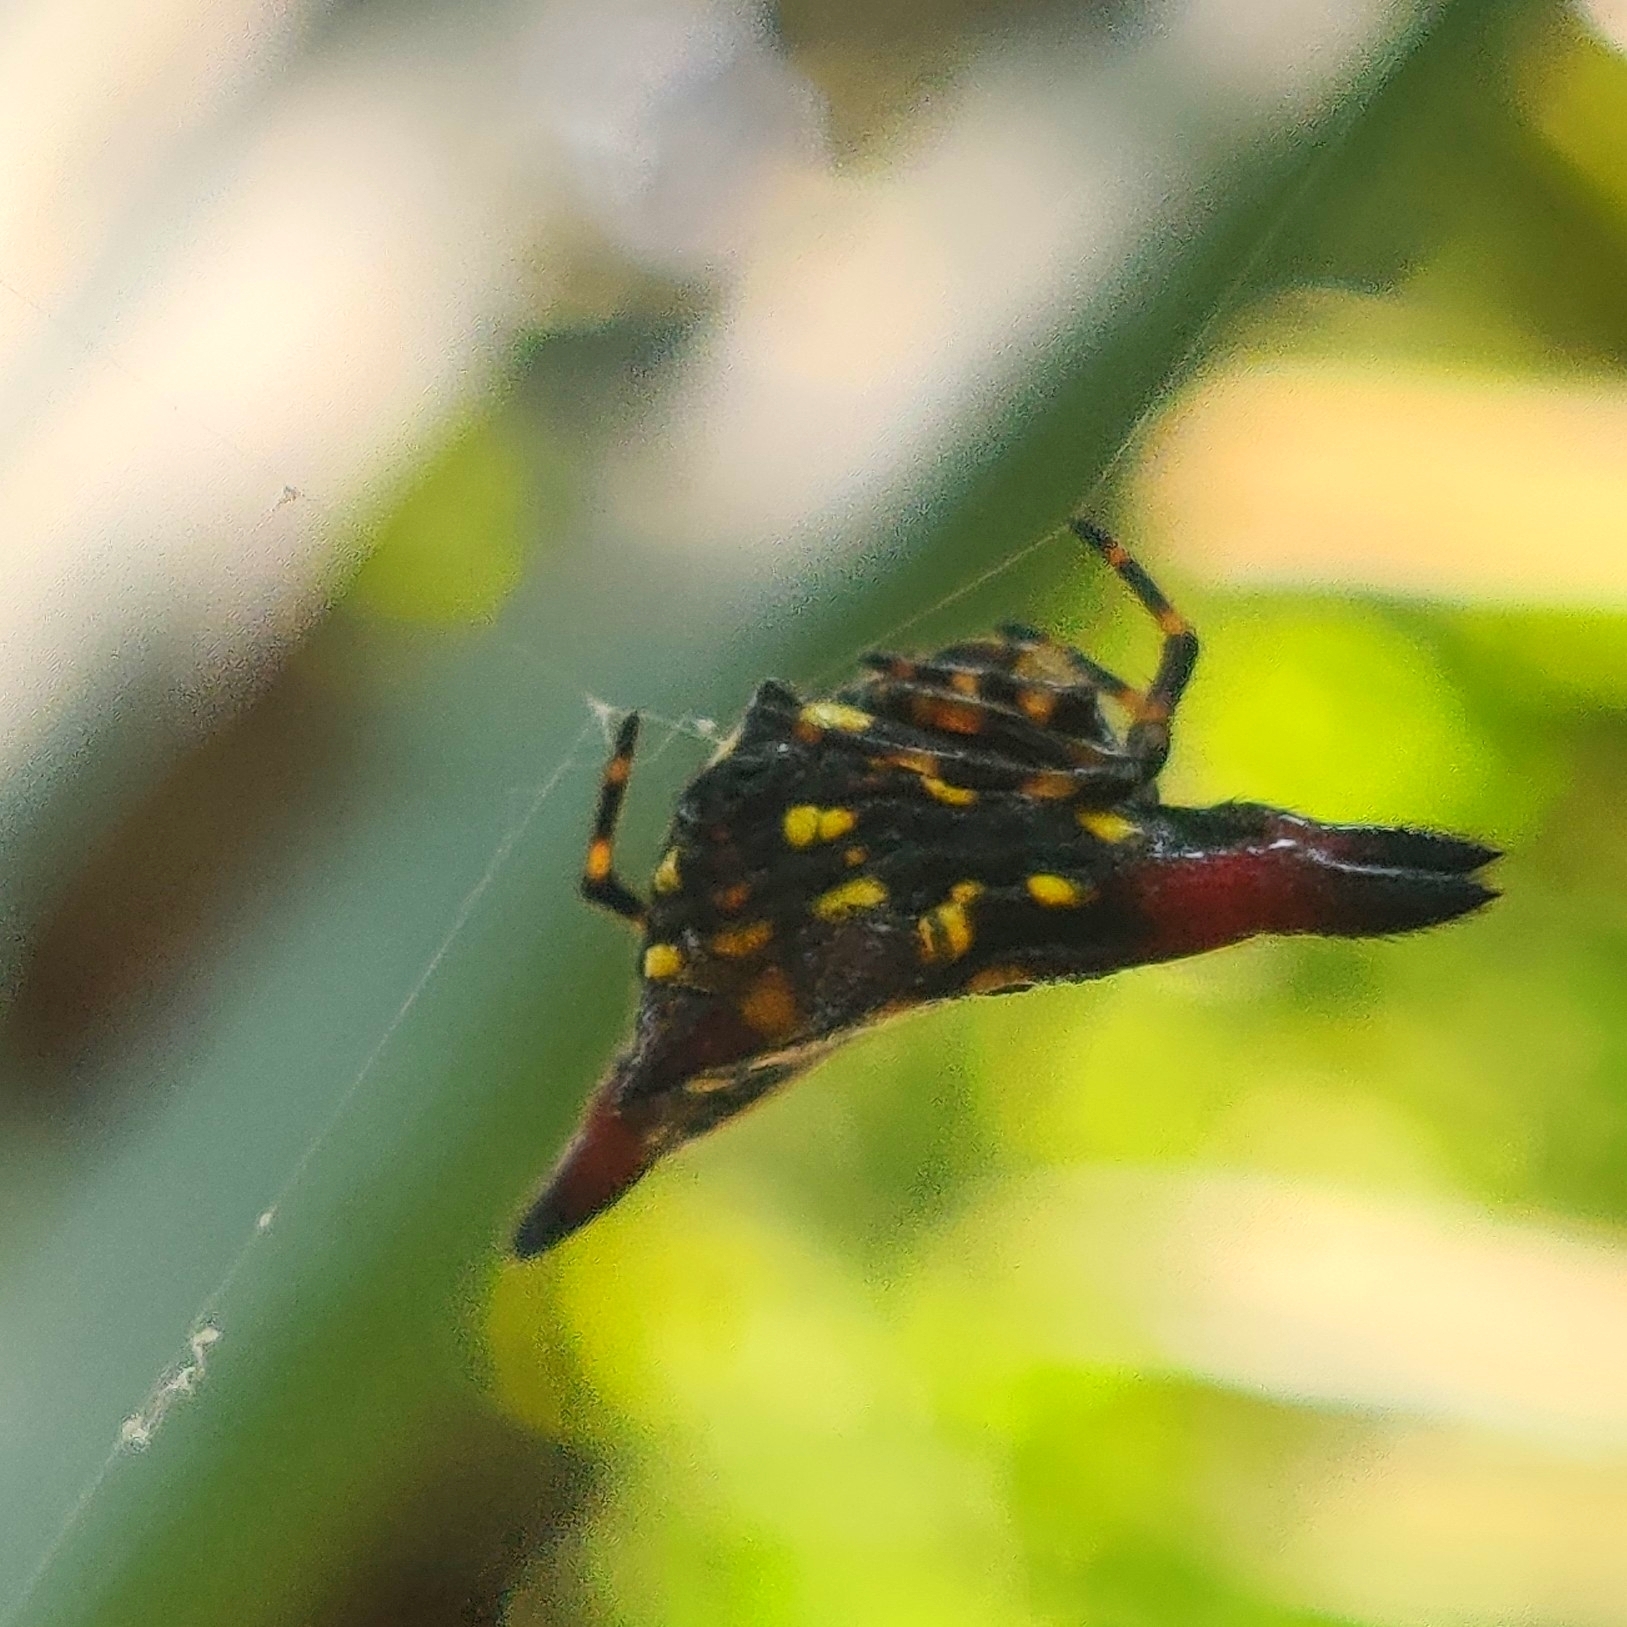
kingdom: Animalia
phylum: Arthropoda
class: Arachnida
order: Araneae
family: Araneidae
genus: Gasteracantha
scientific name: Gasteracantha geminata
